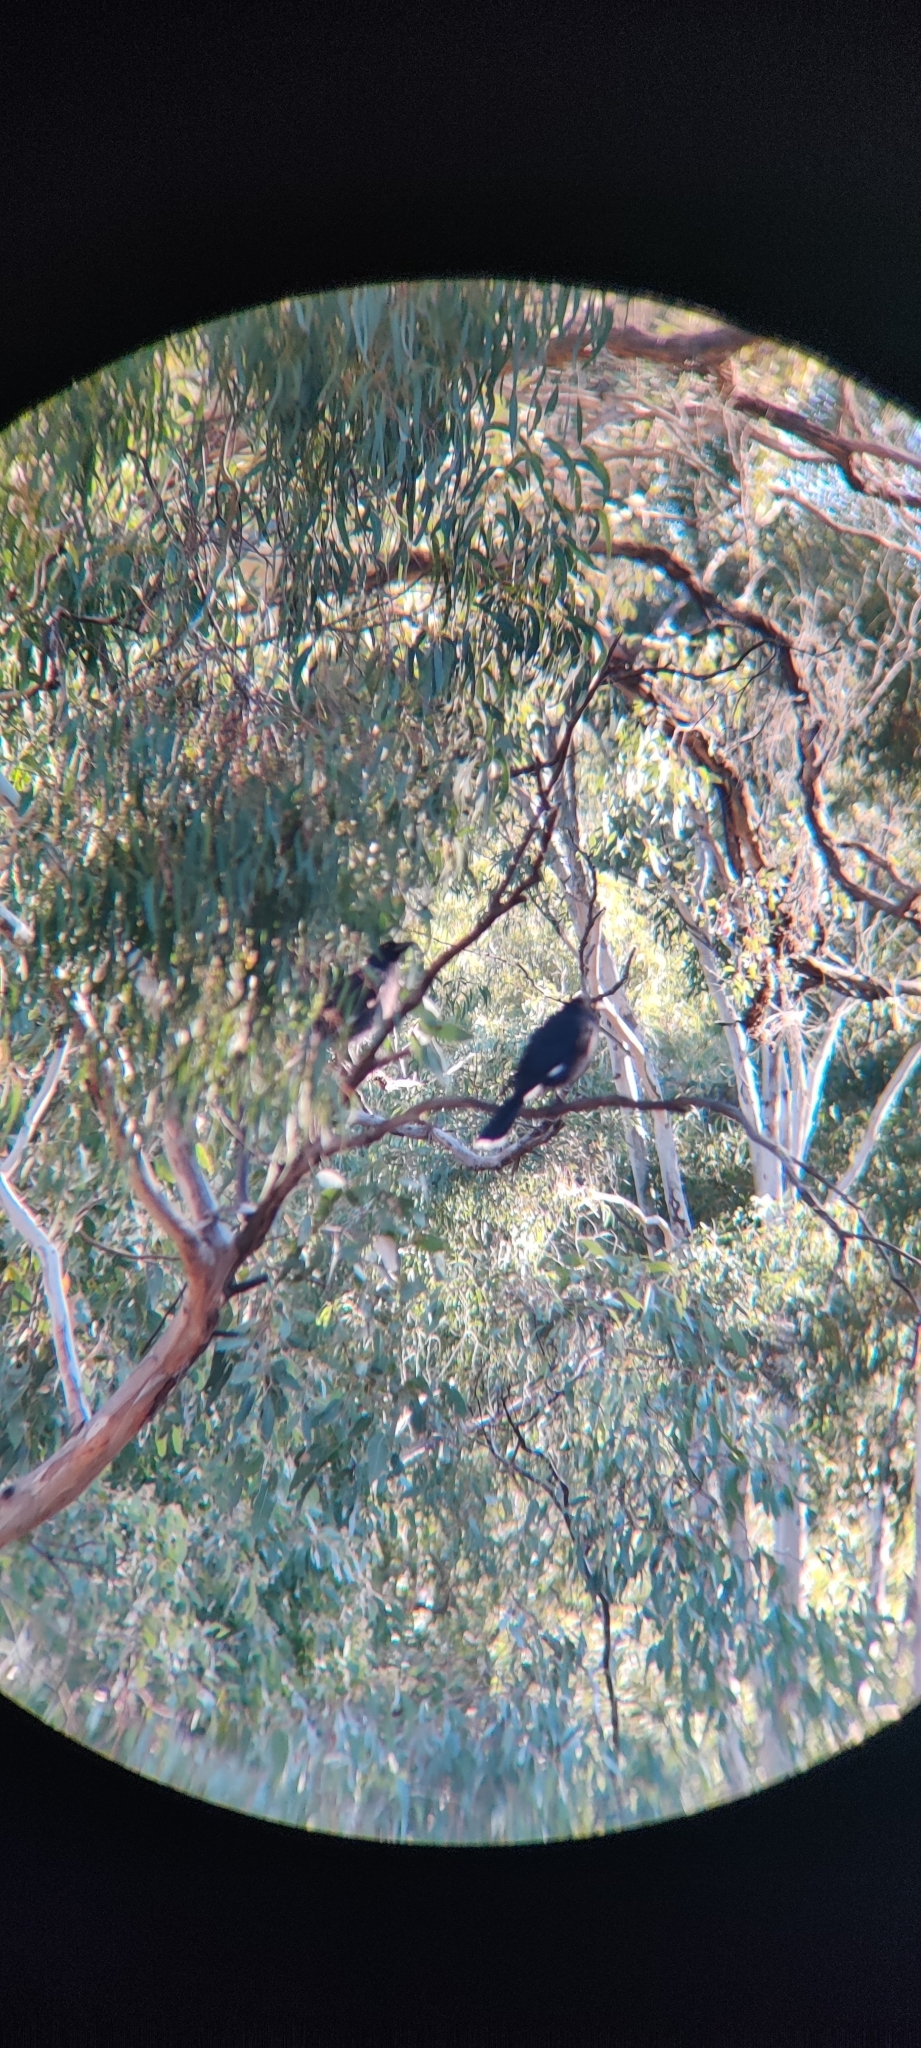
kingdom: Animalia
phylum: Chordata
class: Aves
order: Passeriformes
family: Cracticidae
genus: Strepera
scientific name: Strepera graculina
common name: Pied currawong
